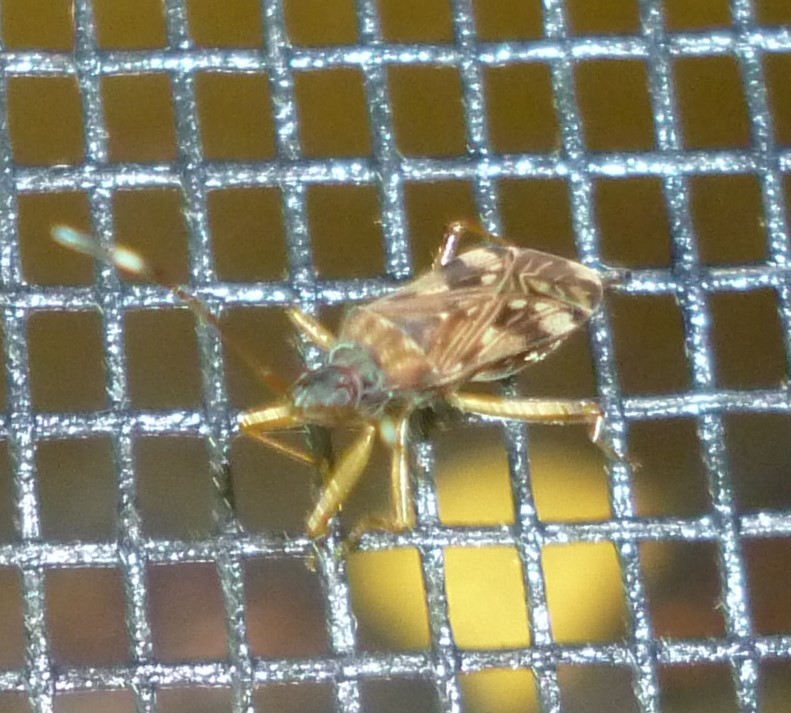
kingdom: Animalia
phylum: Arthropoda
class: Insecta
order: Hemiptera
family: Rhyparochromidae
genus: Ozophora
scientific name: Ozophora picturata
